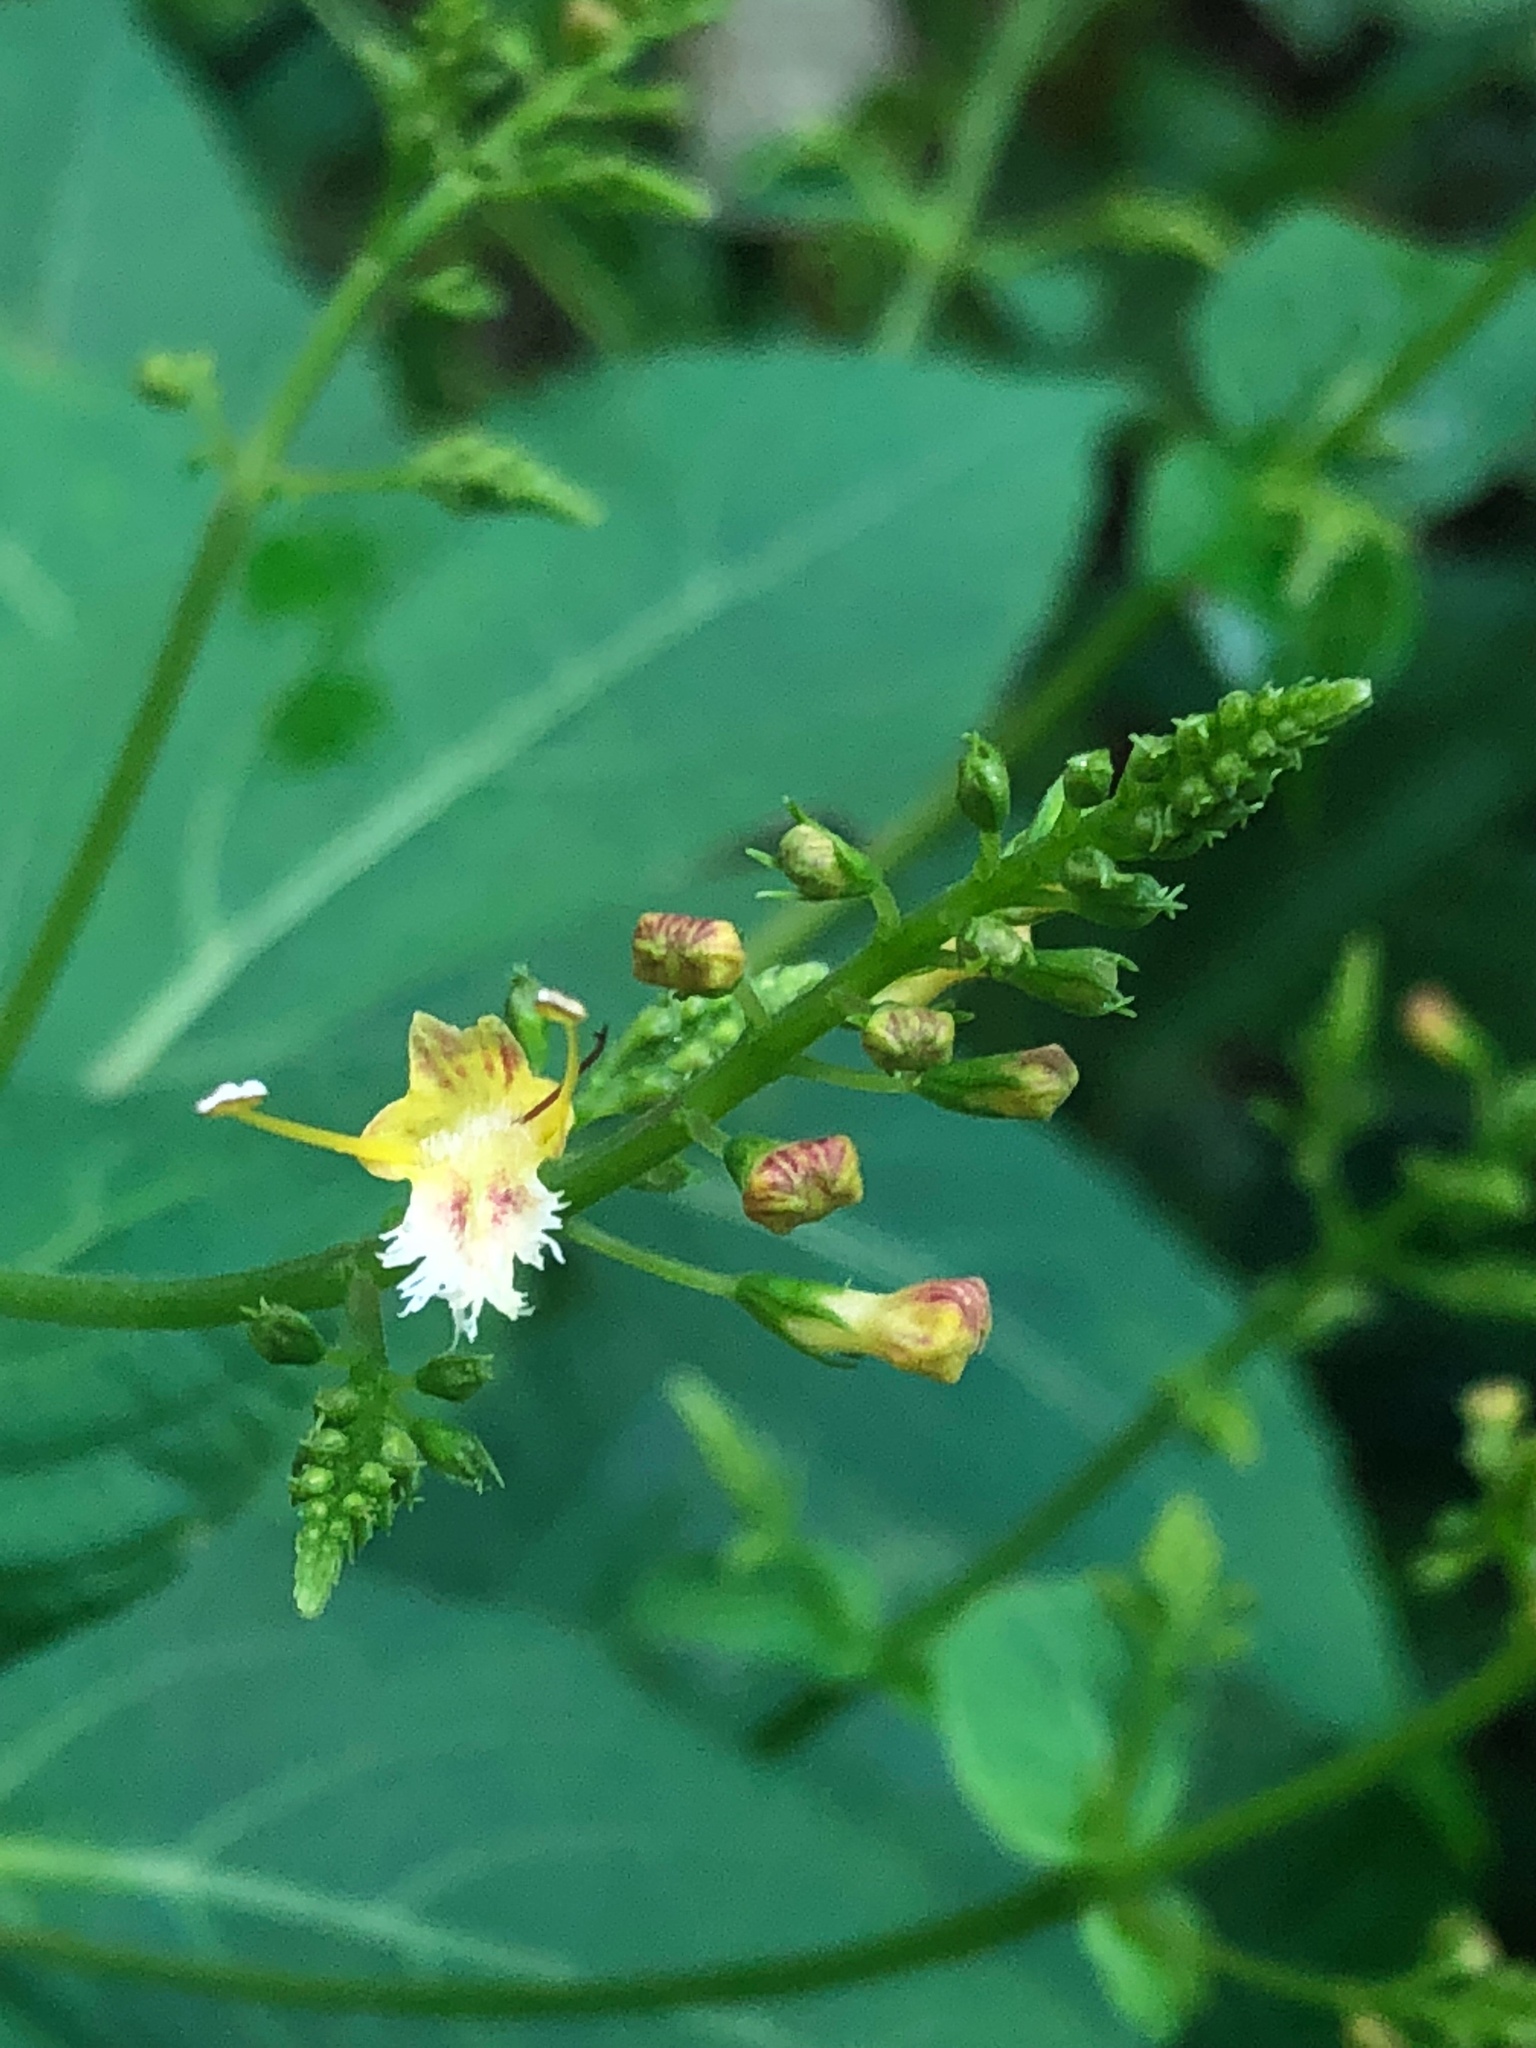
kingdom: Plantae
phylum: Tracheophyta
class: Magnoliopsida
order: Lamiales
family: Lamiaceae
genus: Collinsonia
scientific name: Collinsonia canadensis
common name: Northern horsebalm
